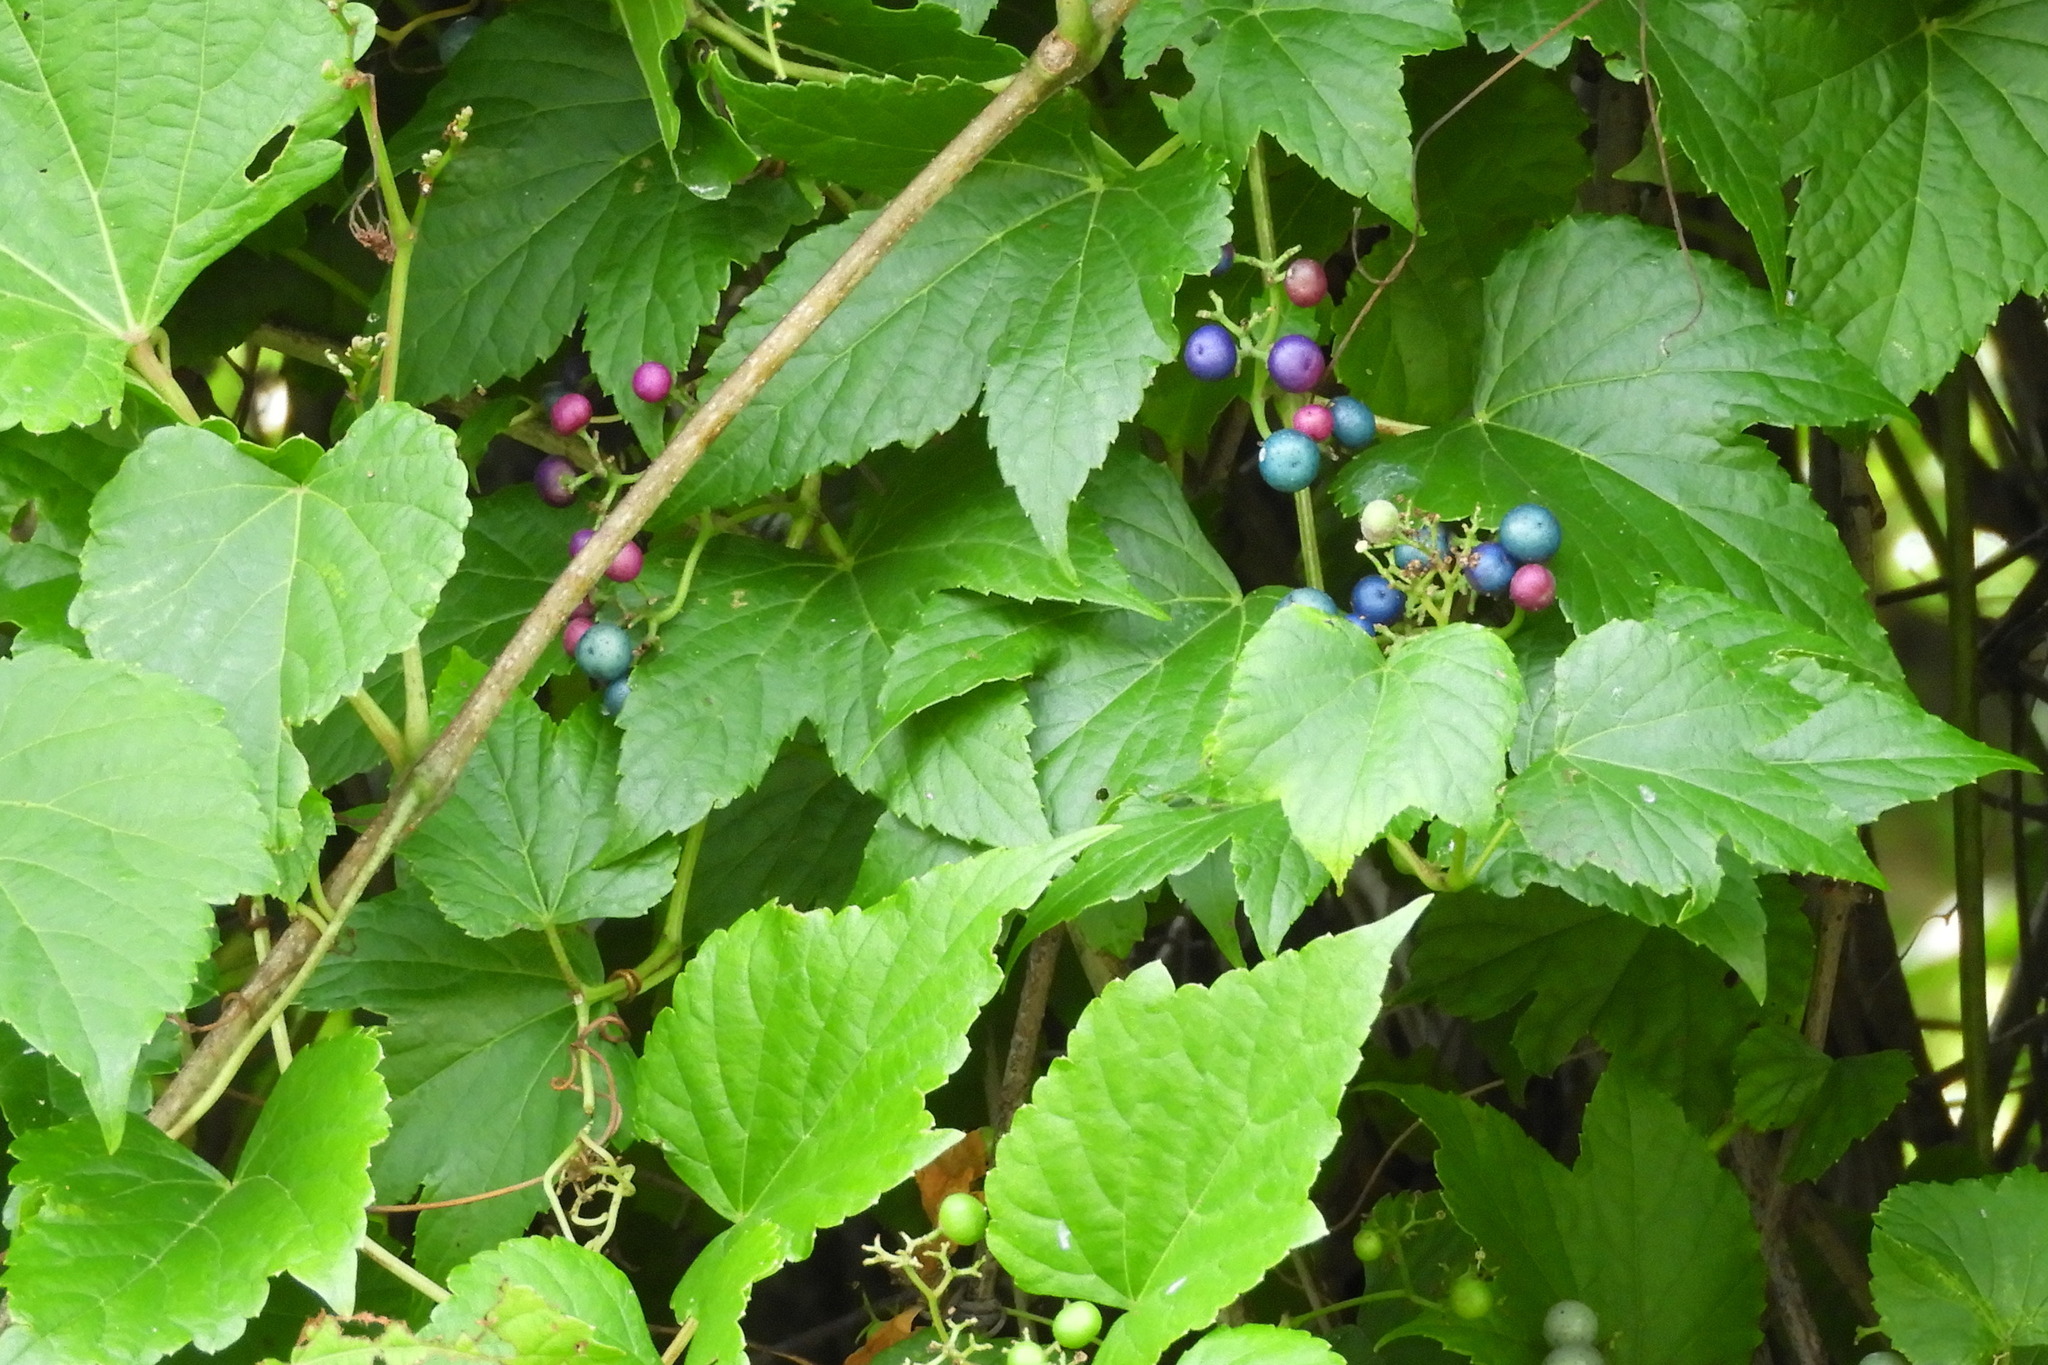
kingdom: Plantae
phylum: Tracheophyta
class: Magnoliopsida
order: Vitales
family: Vitaceae
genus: Ampelopsis
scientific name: Ampelopsis glandulosa
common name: Amur peppervine
